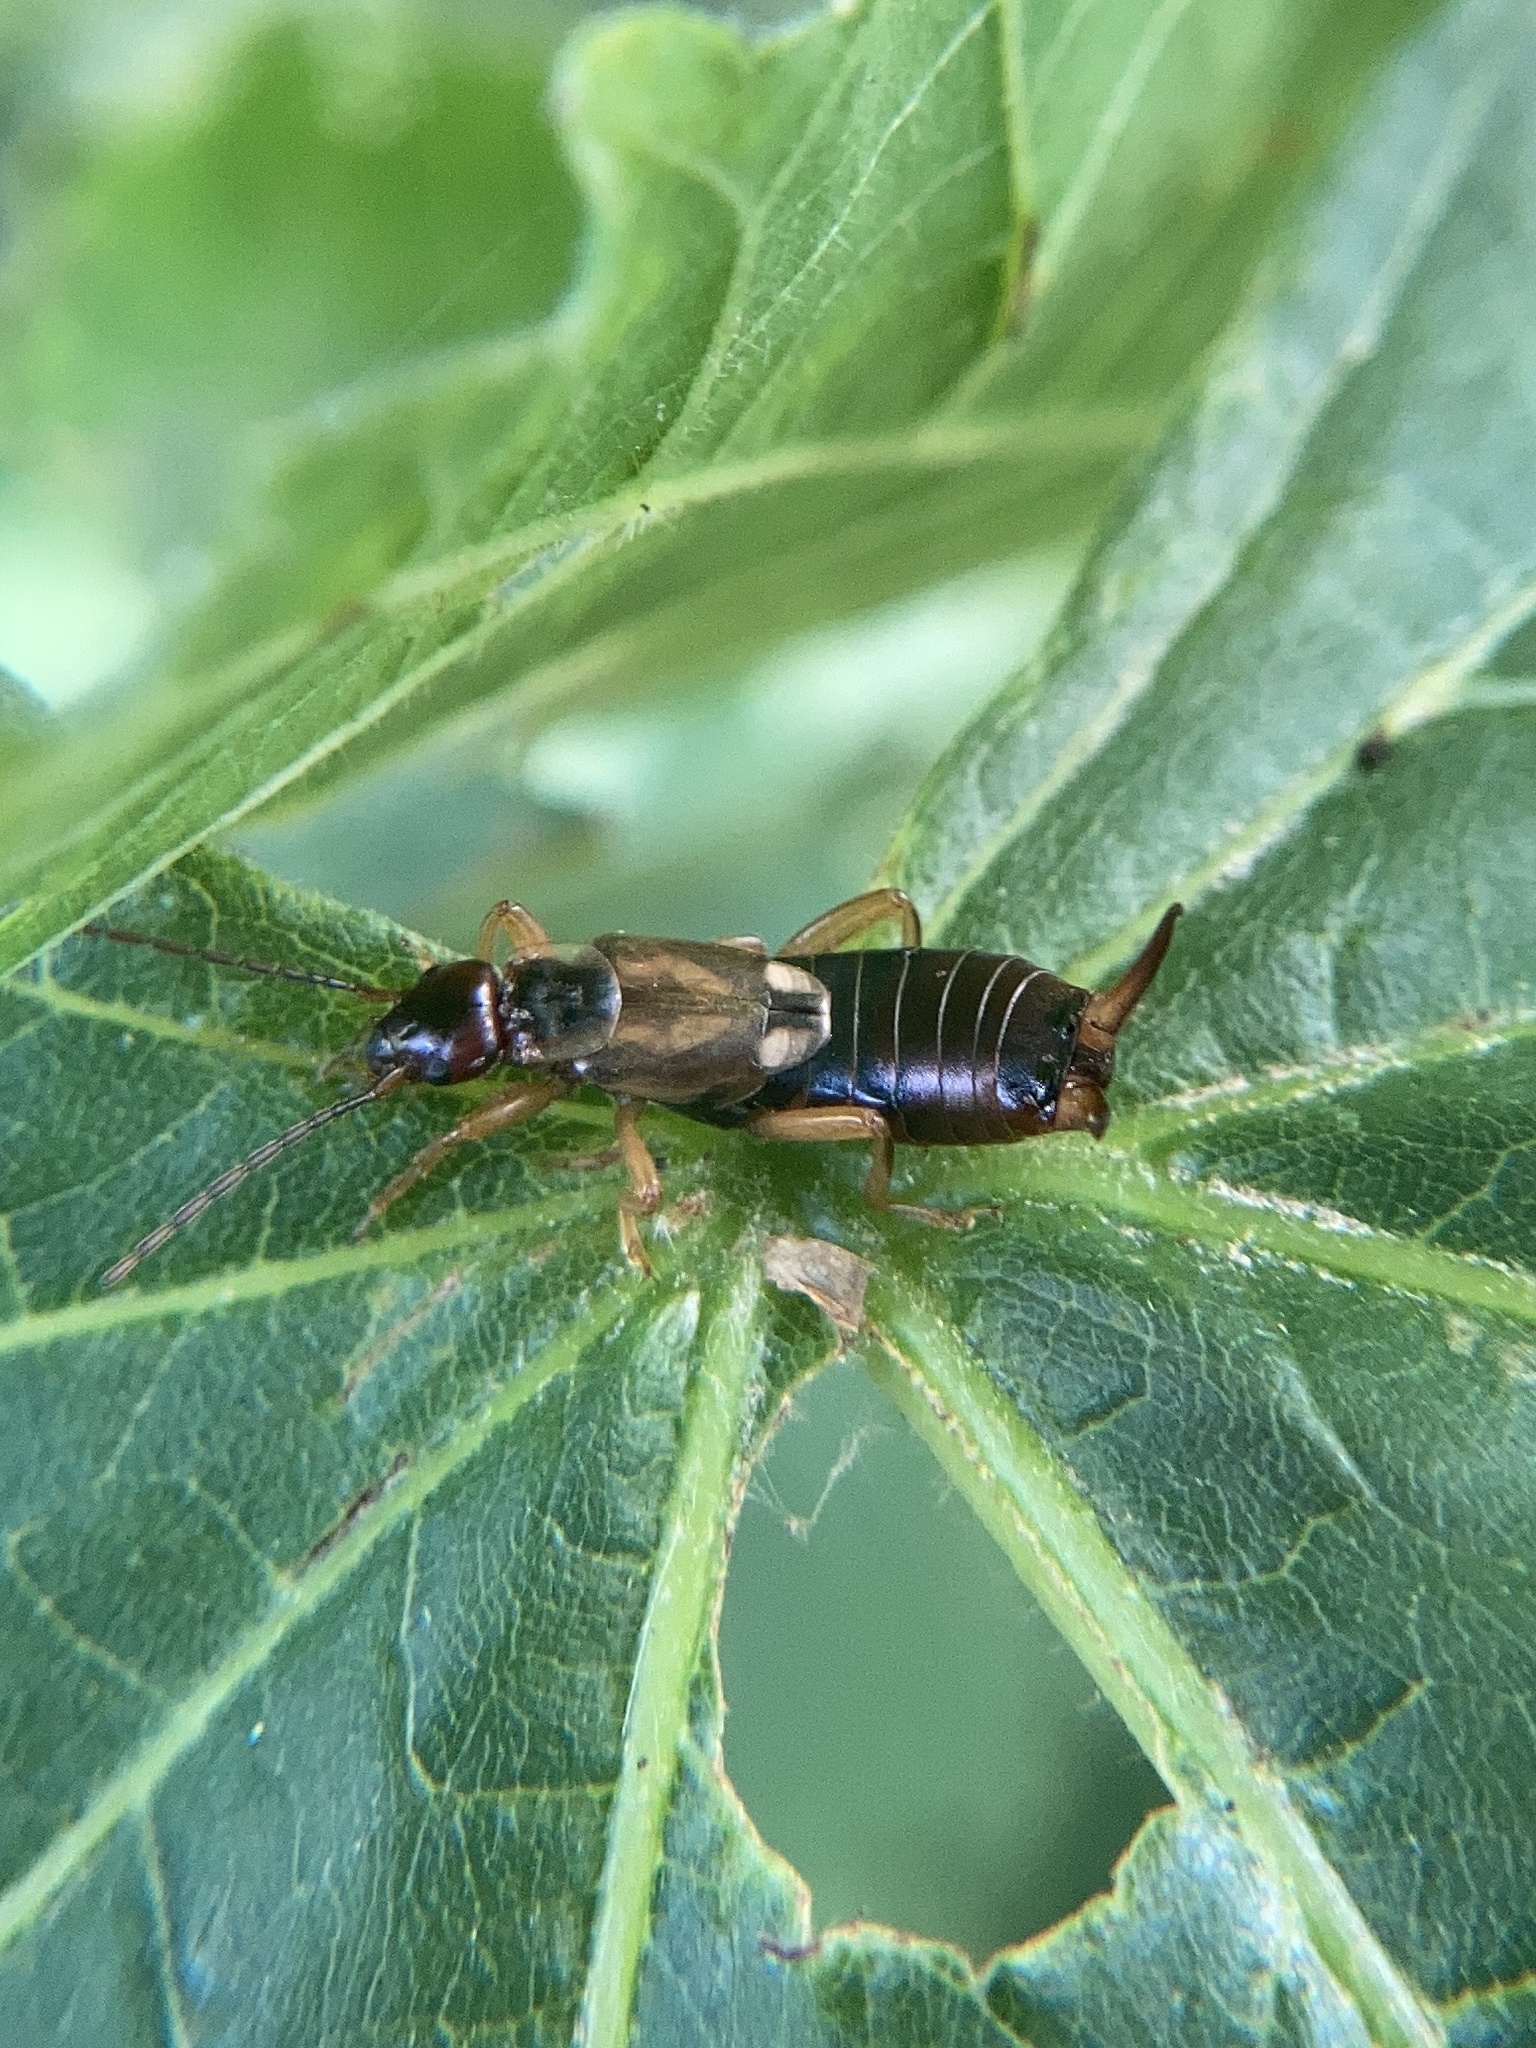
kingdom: Animalia
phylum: Arthropoda
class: Insecta
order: Dermaptera
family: Forficulidae
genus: Forficula
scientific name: Forficula
